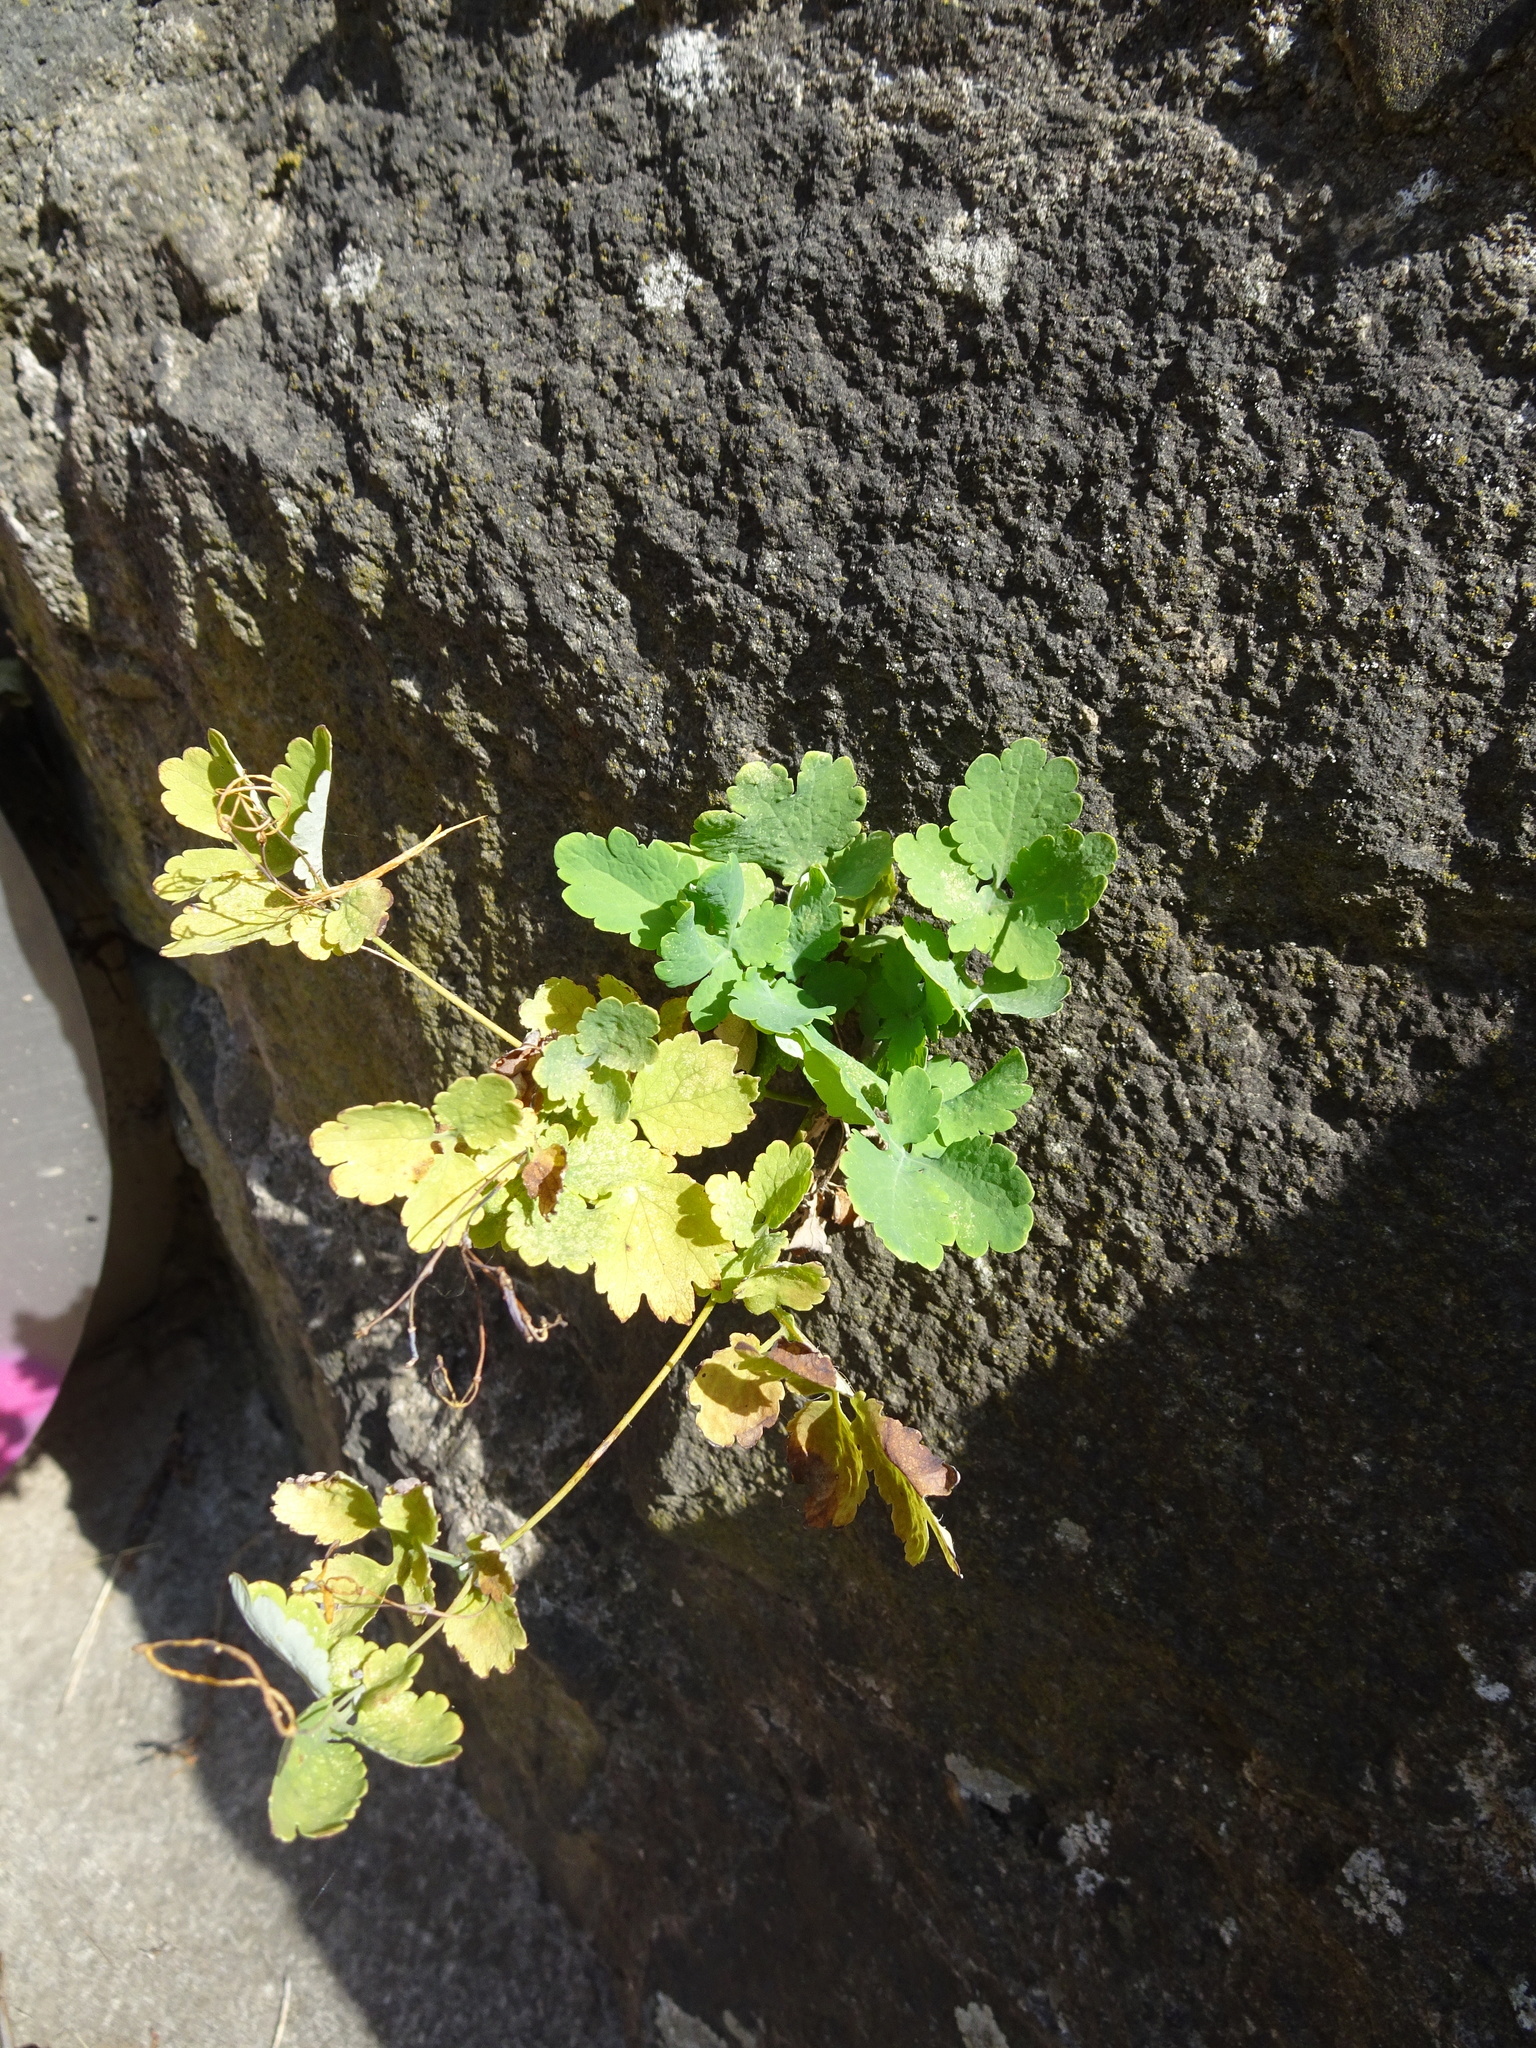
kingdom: Plantae
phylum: Tracheophyta
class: Magnoliopsida
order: Ranunculales
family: Papaveraceae
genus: Chelidonium
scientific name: Chelidonium majus
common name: Greater celandine
